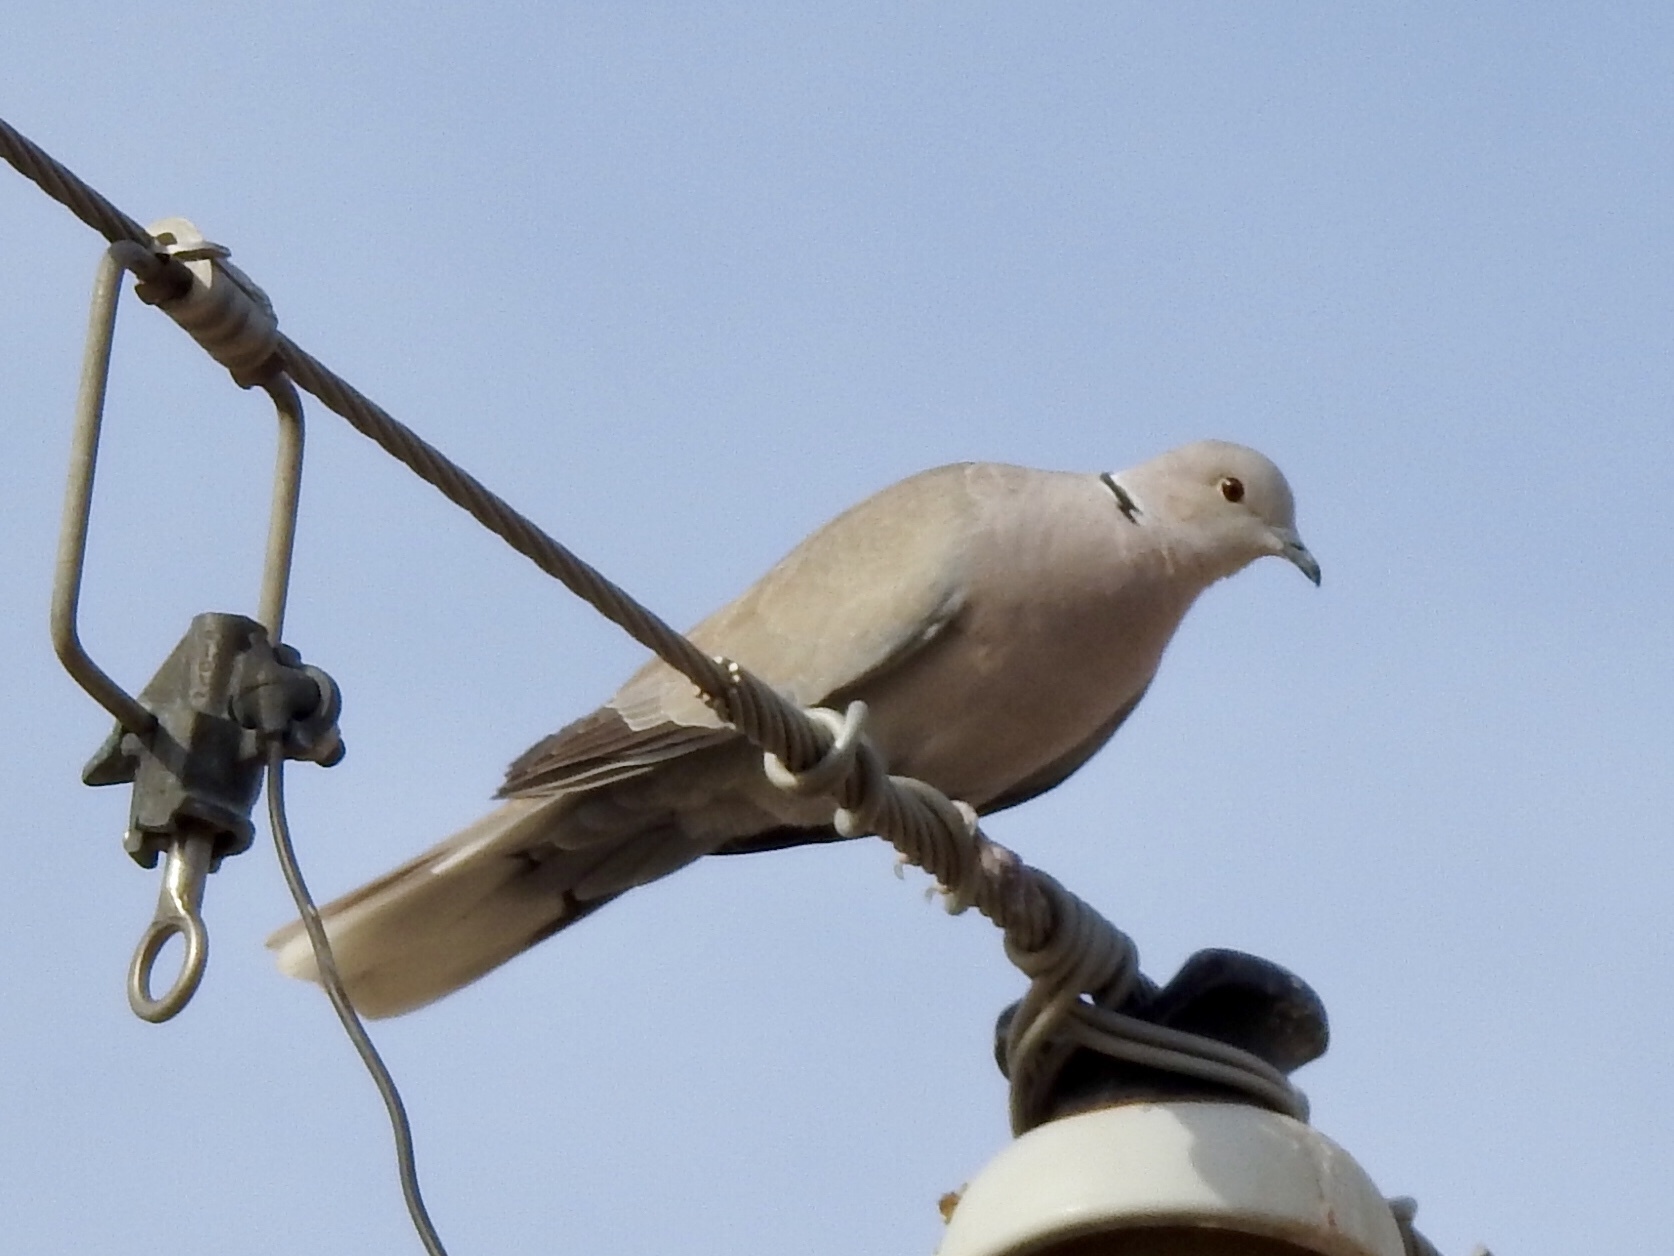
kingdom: Animalia
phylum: Chordata
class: Aves
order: Columbiformes
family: Columbidae
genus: Streptopelia
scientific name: Streptopelia decaocto
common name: Eurasian collared dove
